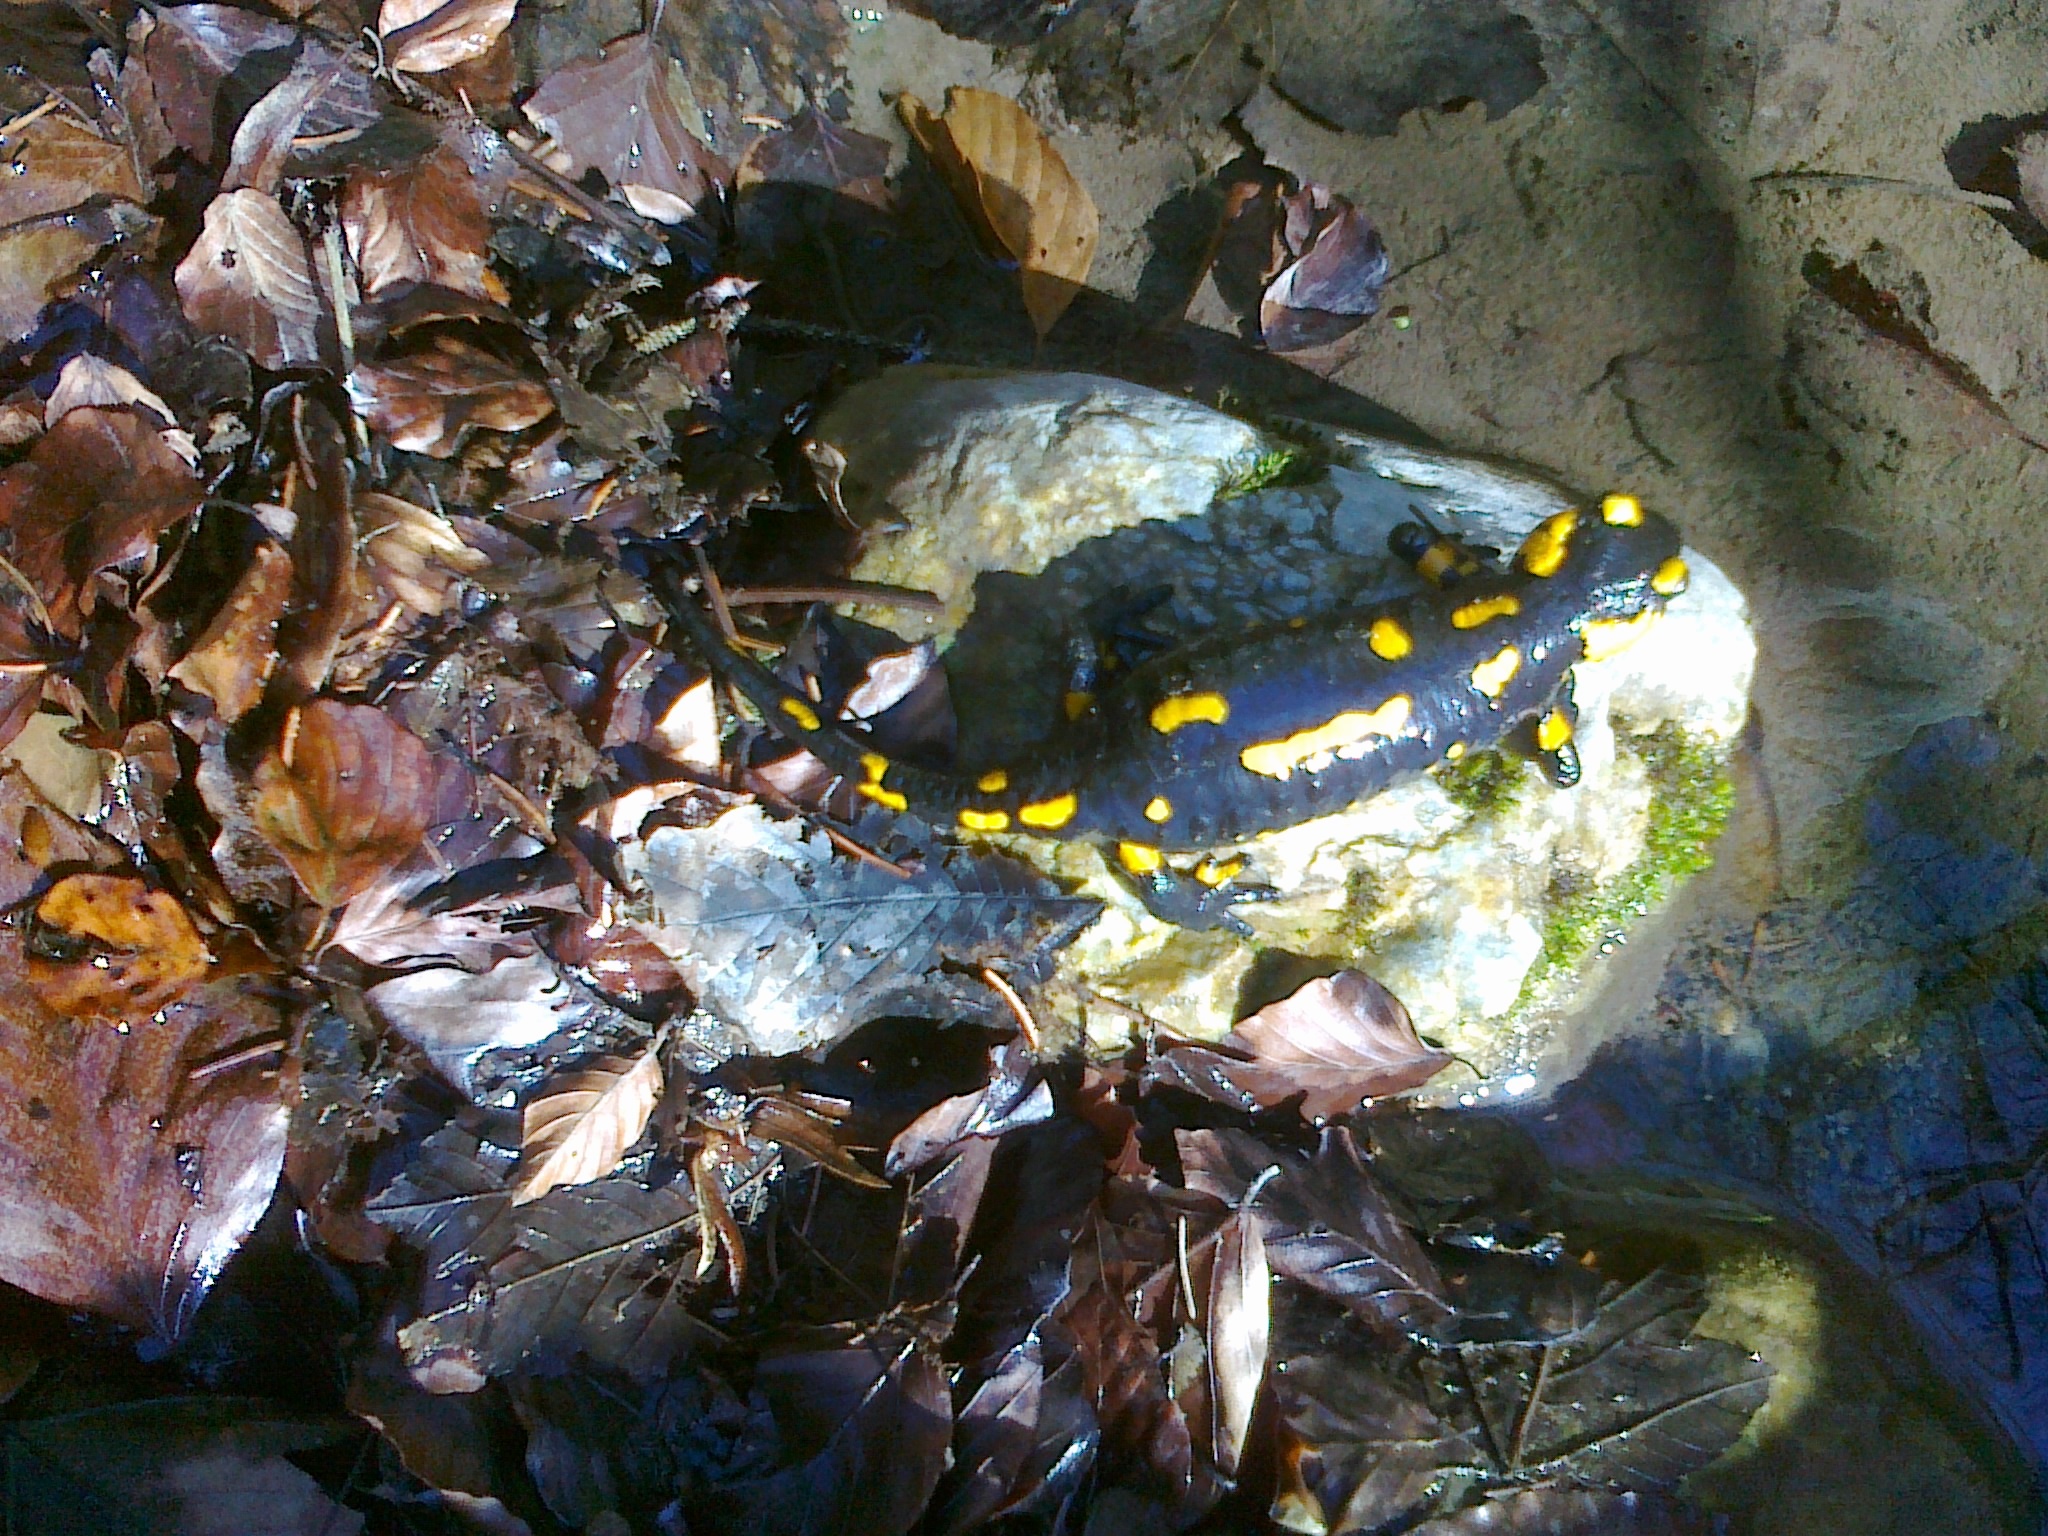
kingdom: Animalia
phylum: Chordata
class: Amphibia
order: Caudata
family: Salamandridae
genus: Salamandra
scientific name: Salamandra salamandra
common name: Fire salamander
